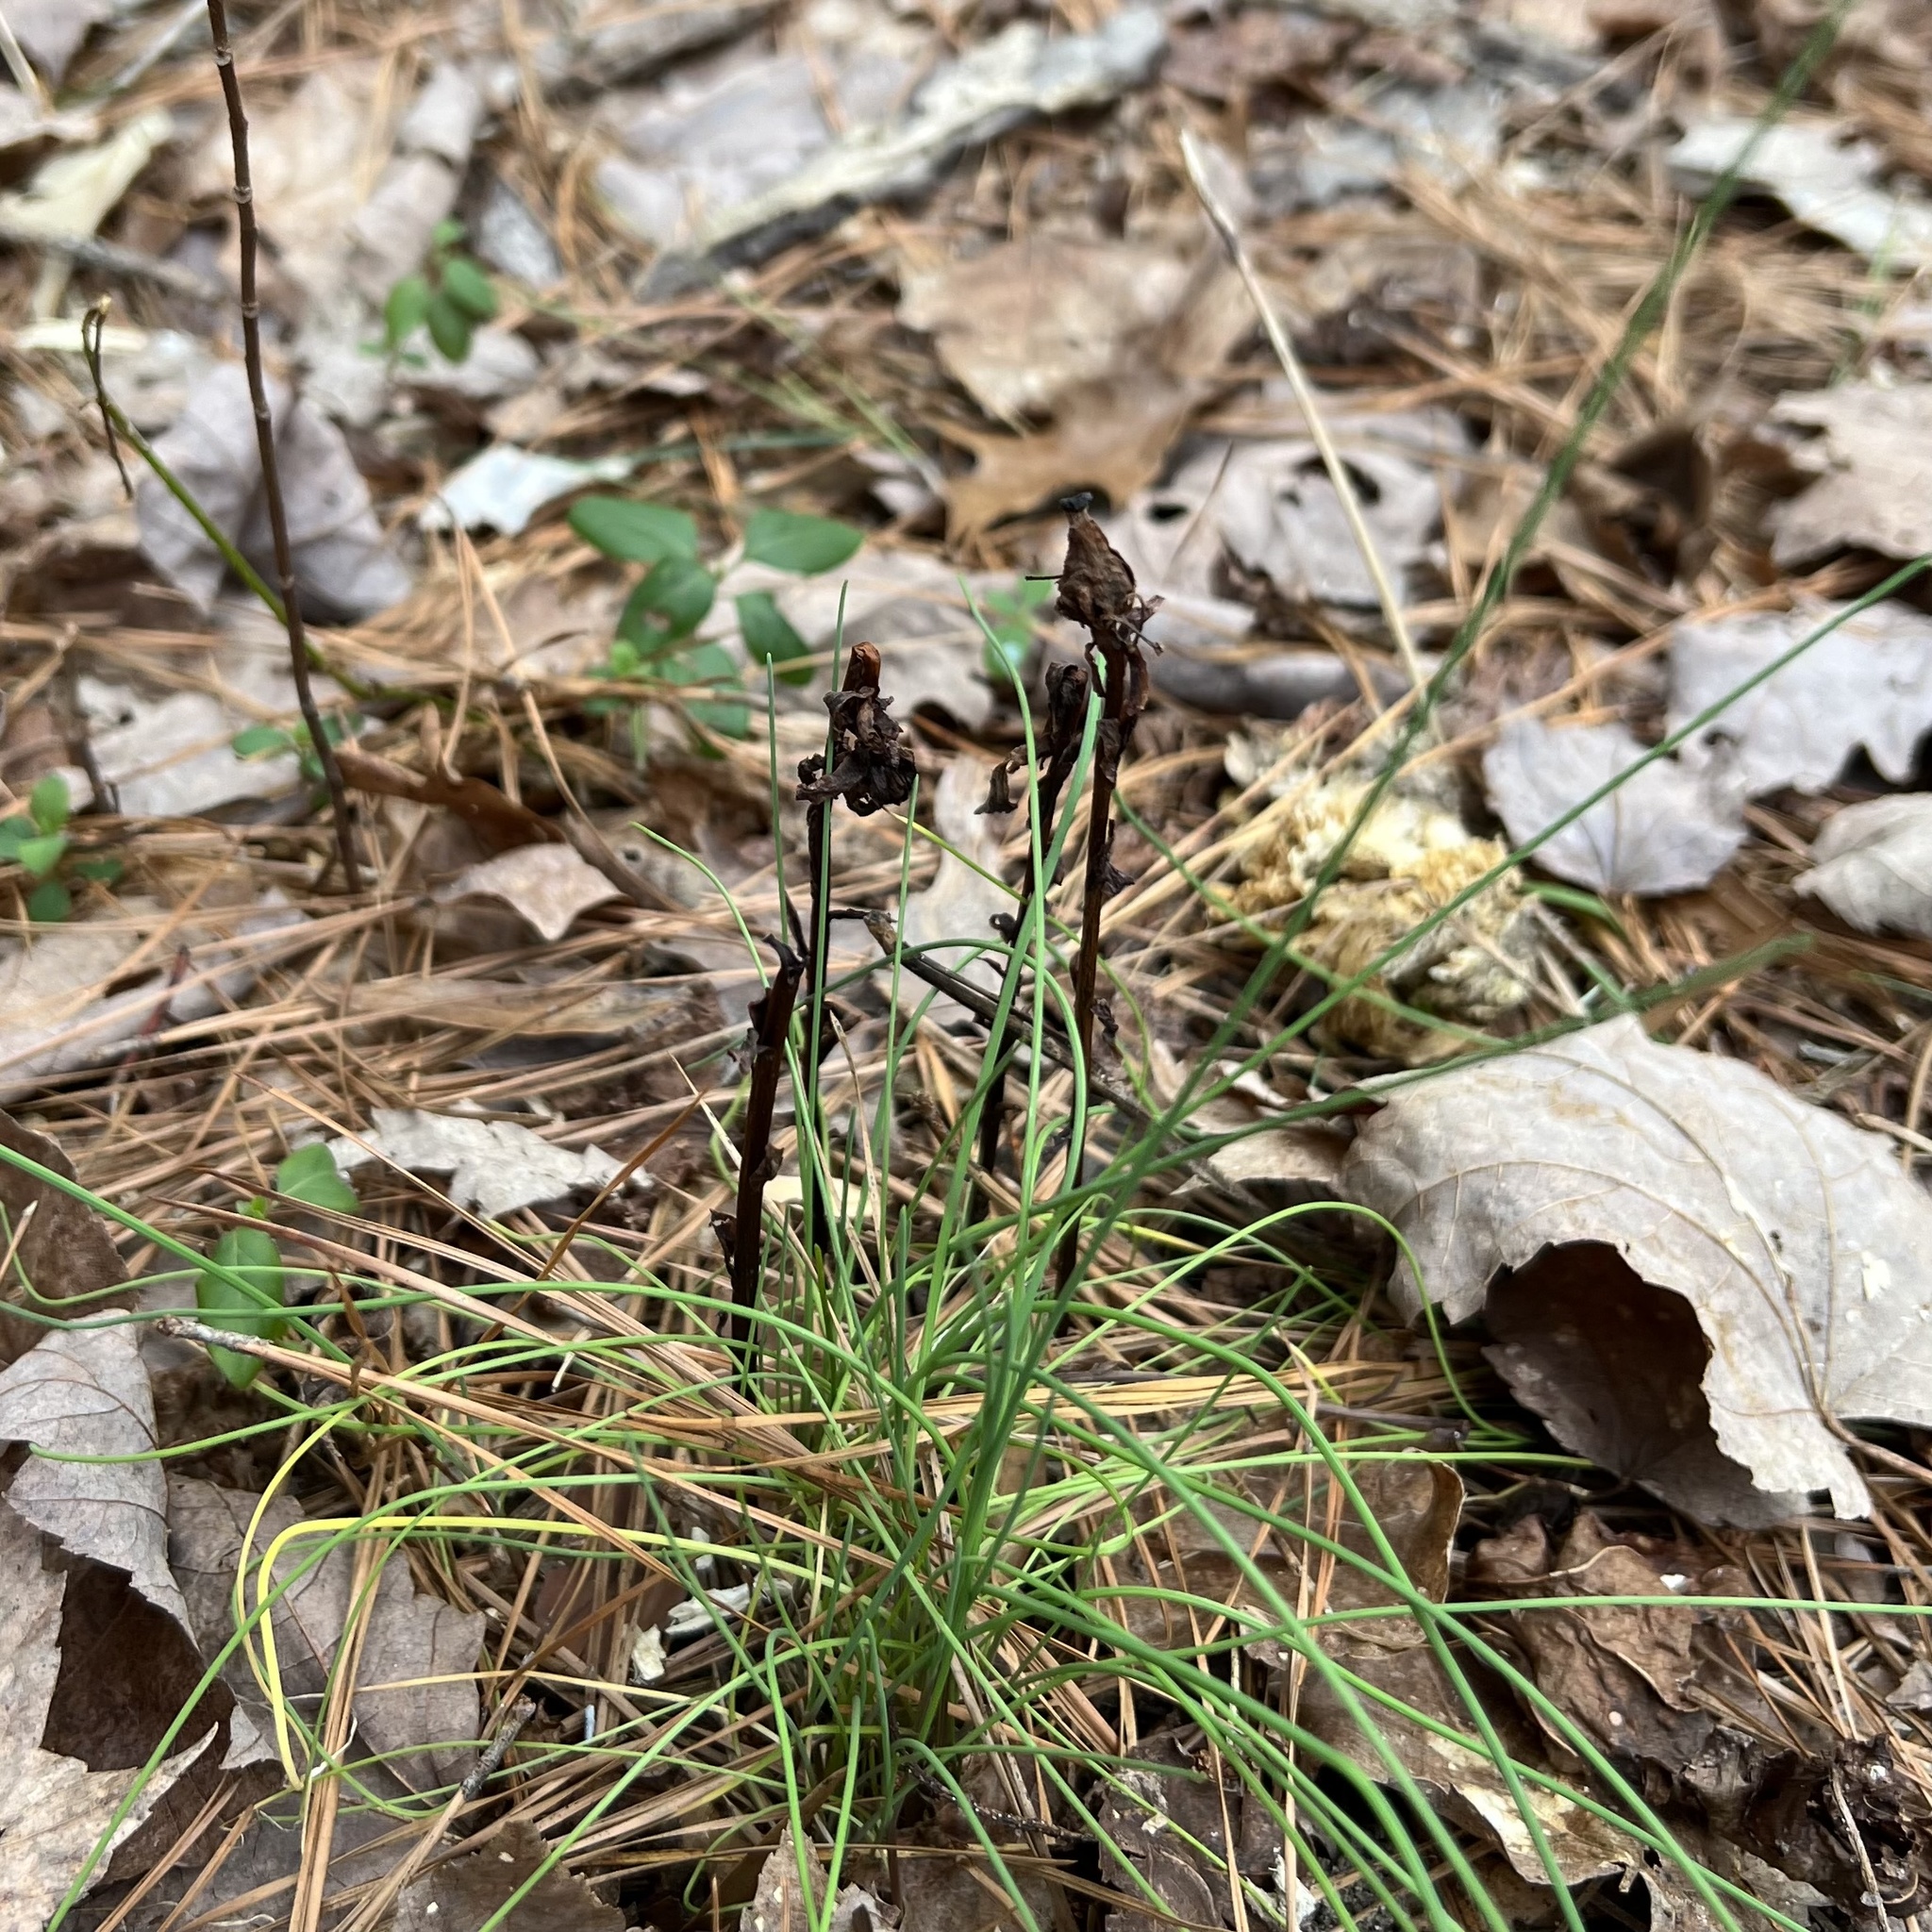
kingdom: Plantae
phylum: Tracheophyta
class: Magnoliopsida
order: Ericales
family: Ericaceae
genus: Monotropa
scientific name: Monotropa uniflora
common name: Convulsion root
